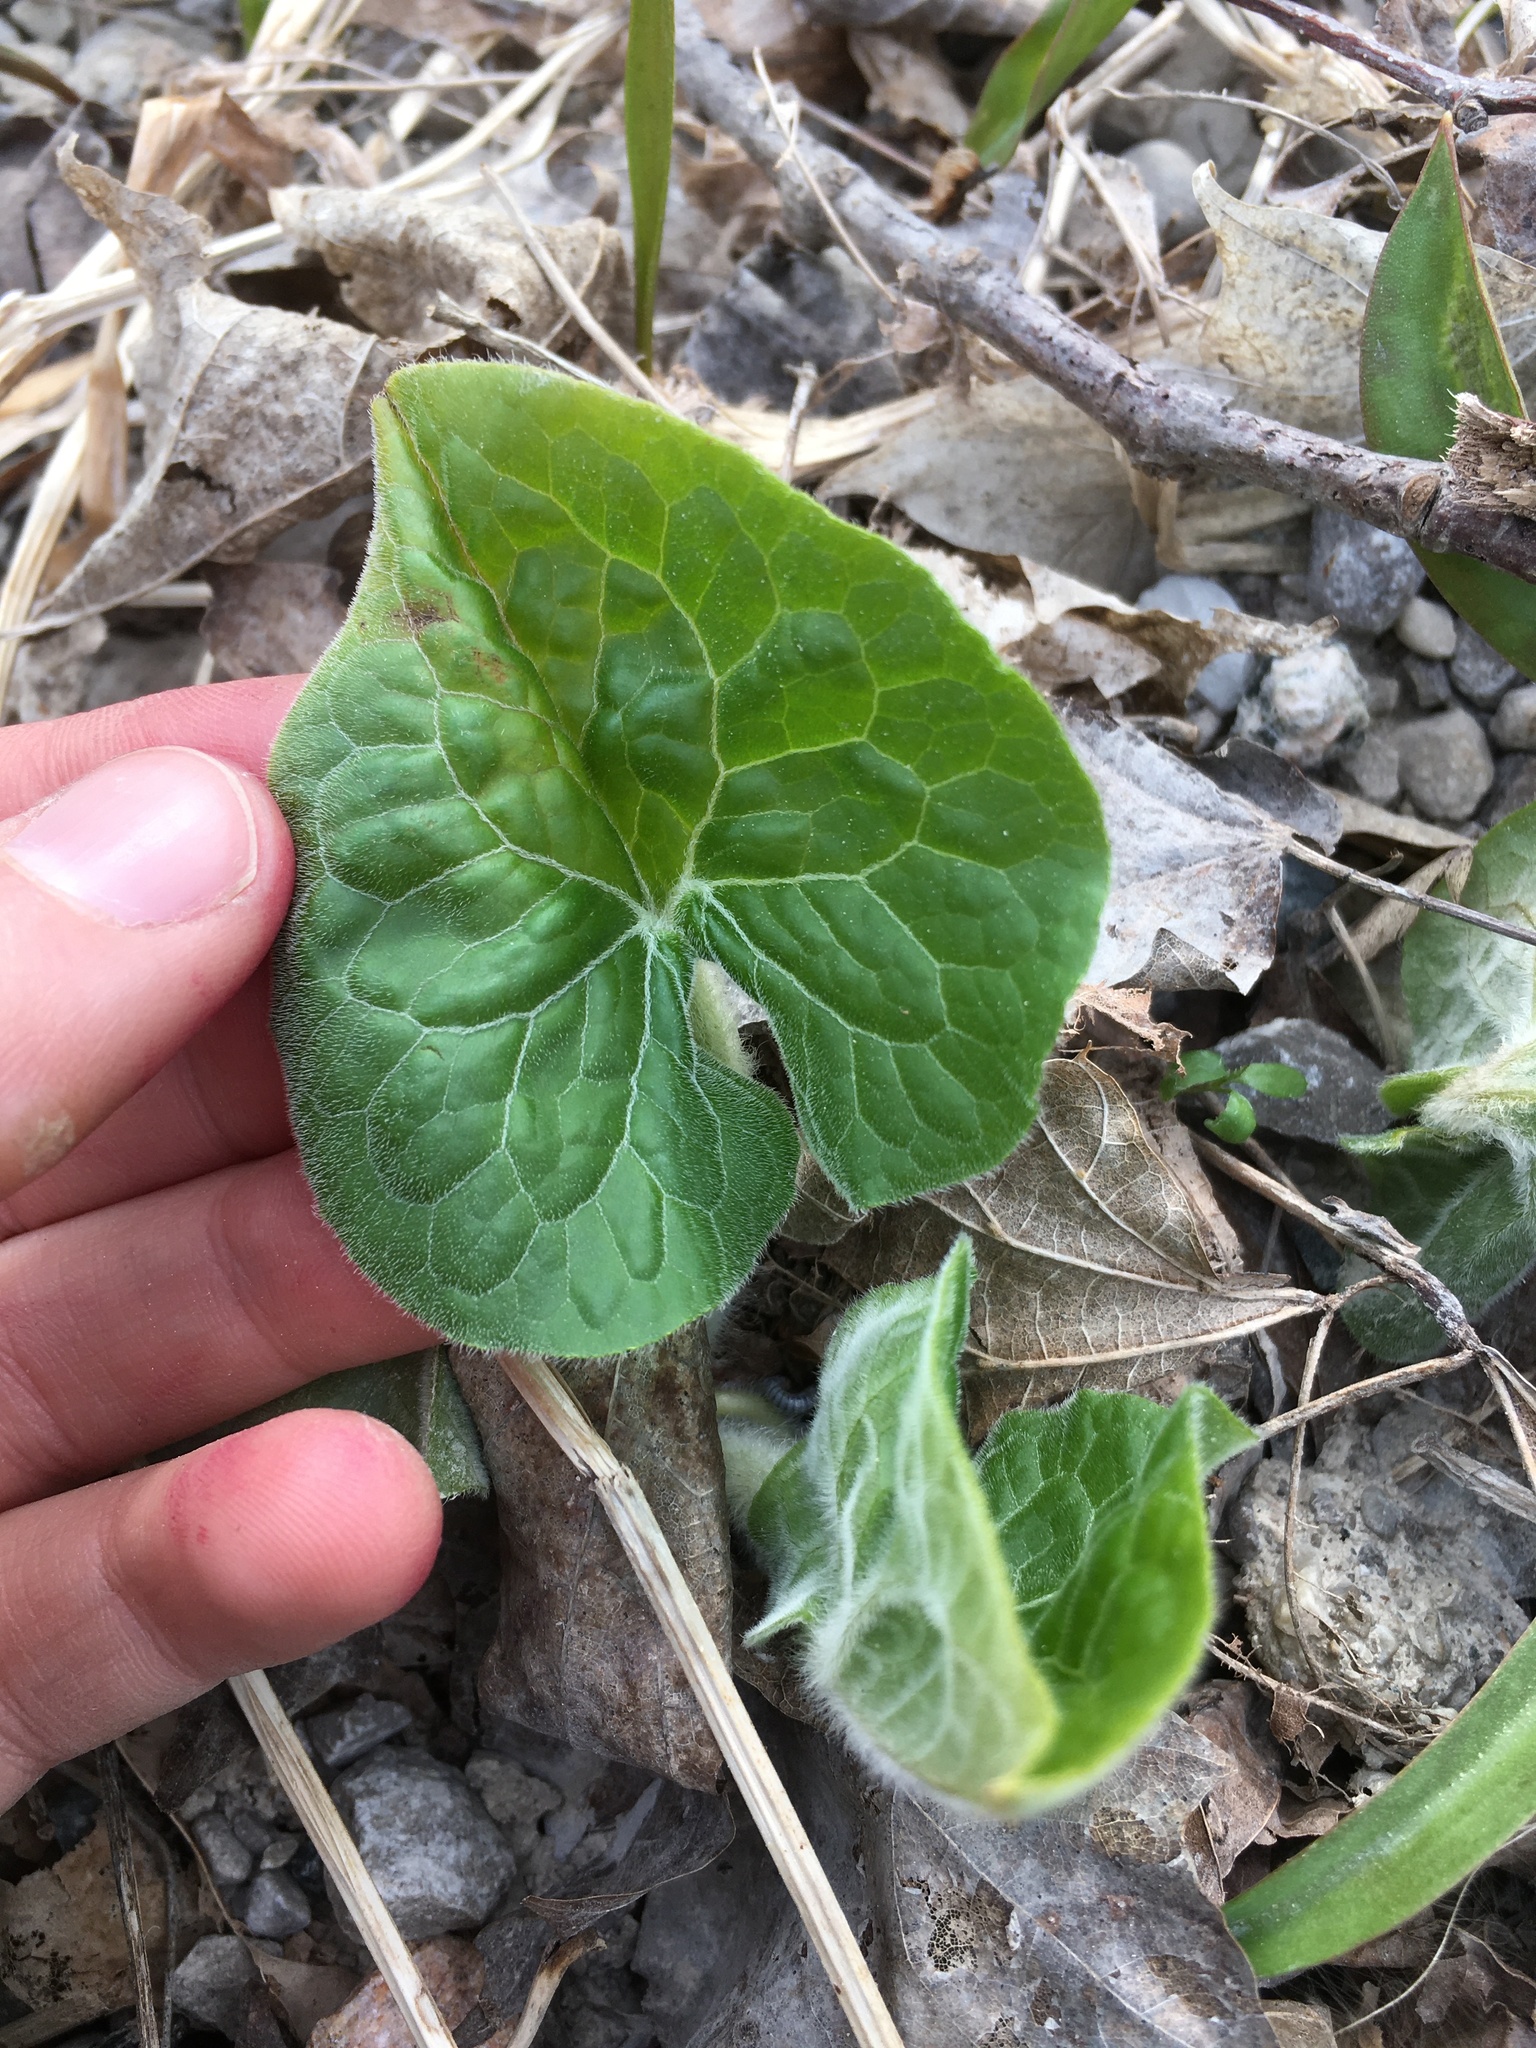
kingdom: Plantae
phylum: Tracheophyta
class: Magnoliopsida
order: Piperales
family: Aristolochiaceae
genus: Asarum
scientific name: Asarum canadense
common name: Wild ginger
